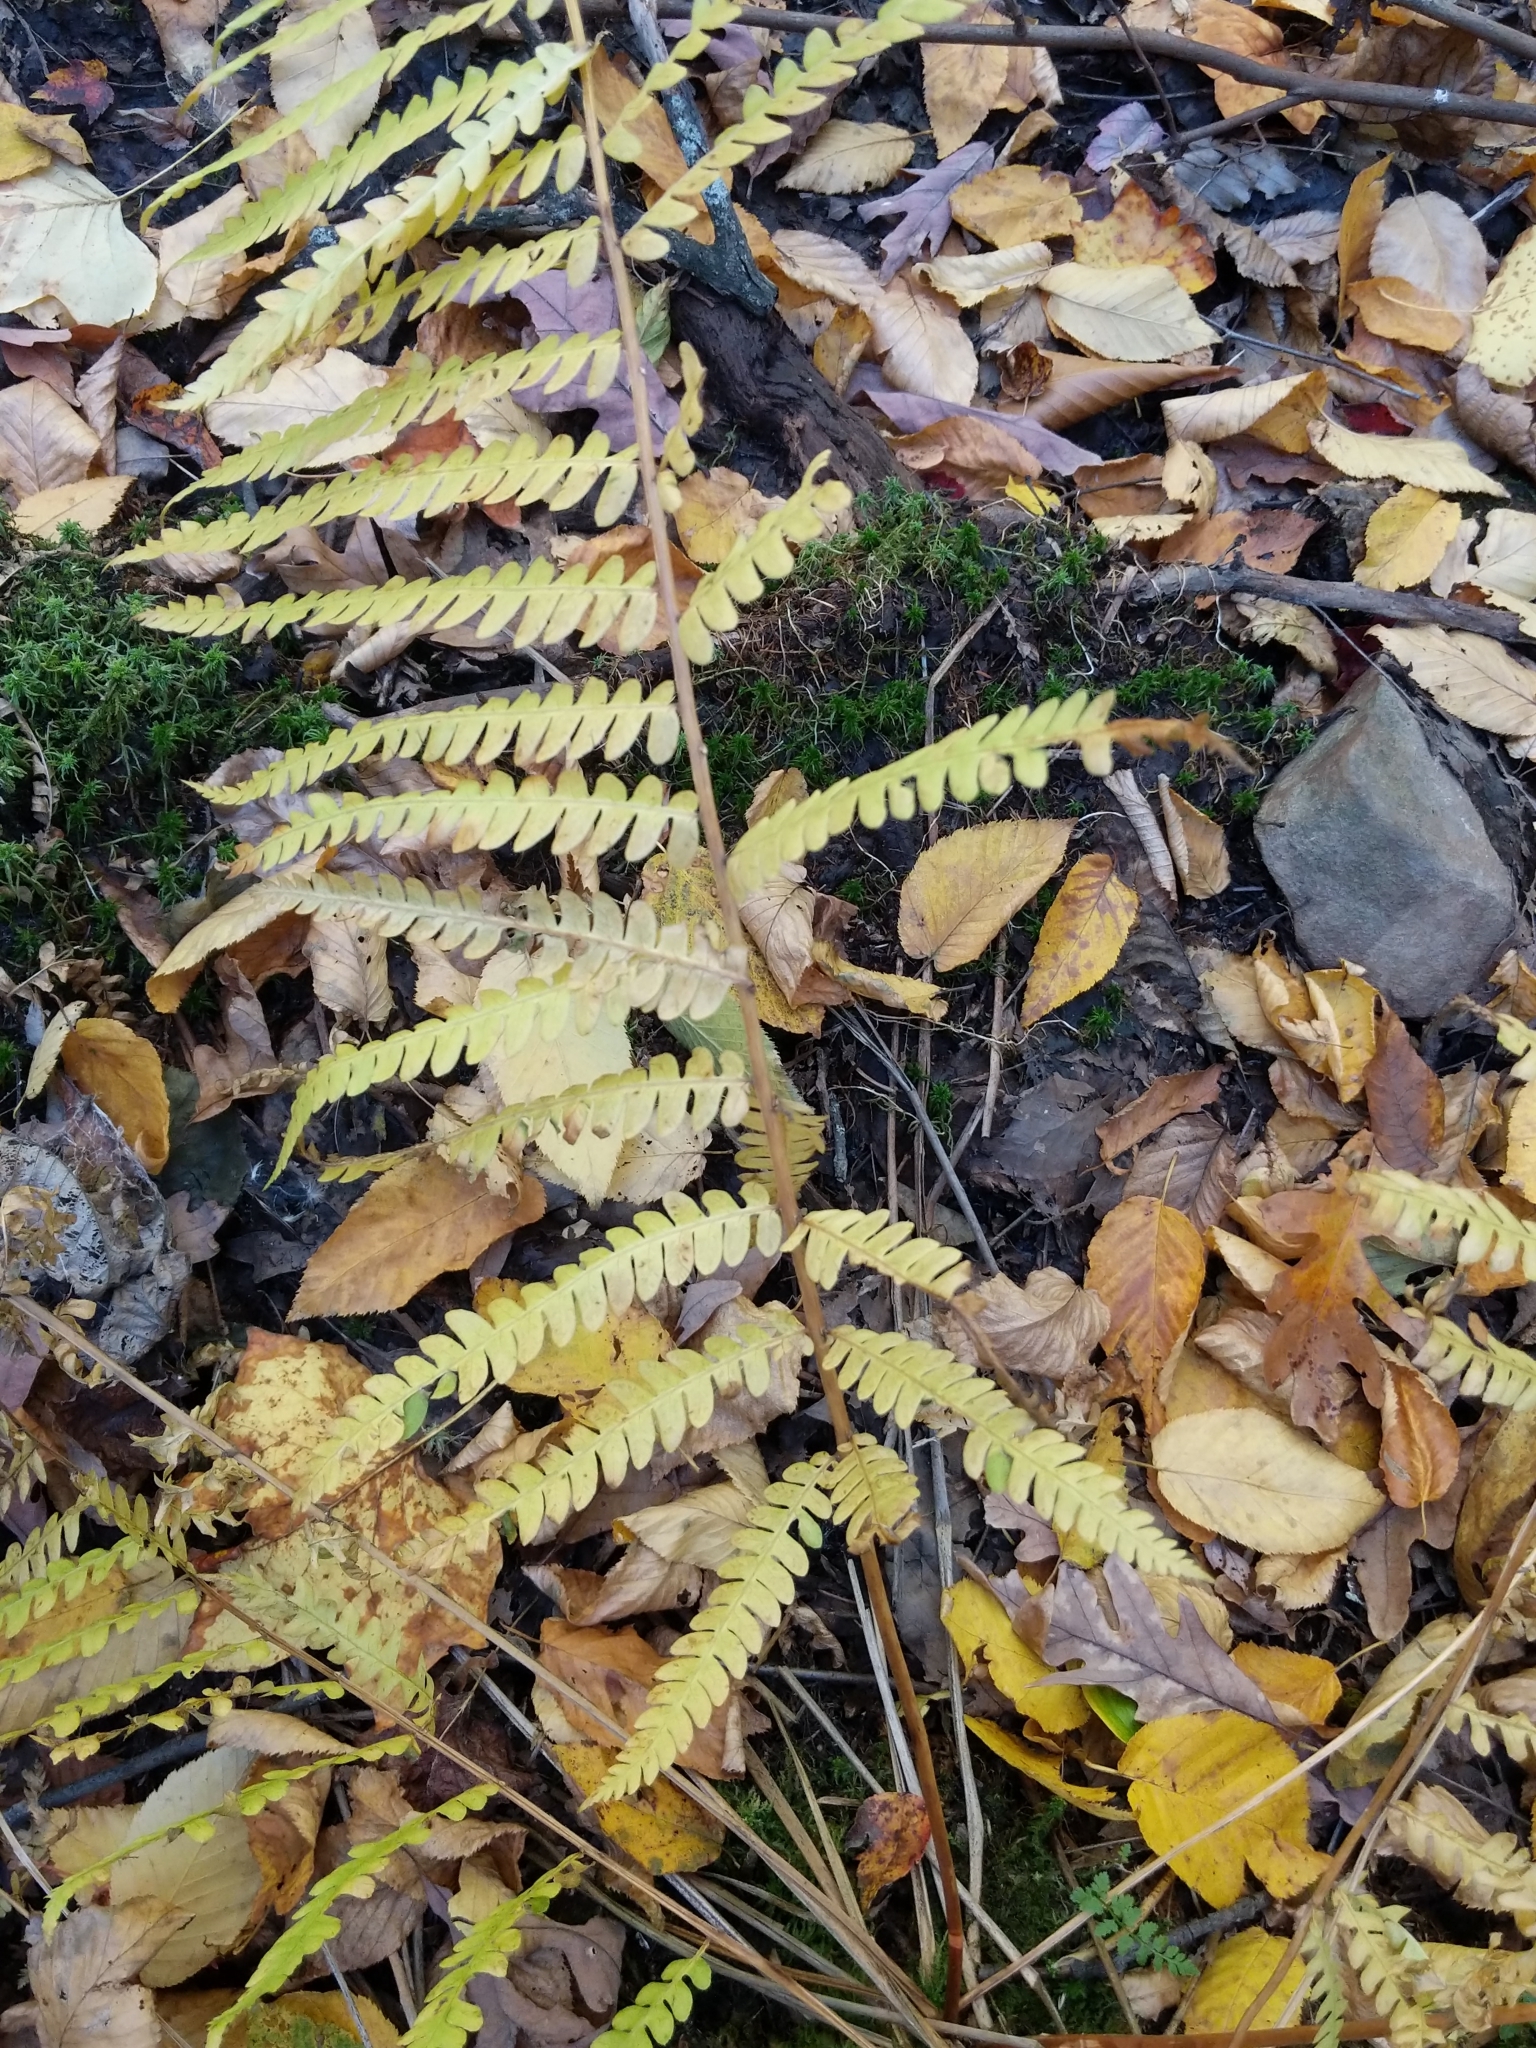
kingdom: Plantae
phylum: Tracheophyta
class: Polypodiopsida
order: Osmundales
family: Osmundaceae
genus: Osmundastrum
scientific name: Osmundastrum cinnamomeum
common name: Cinnamon fern
